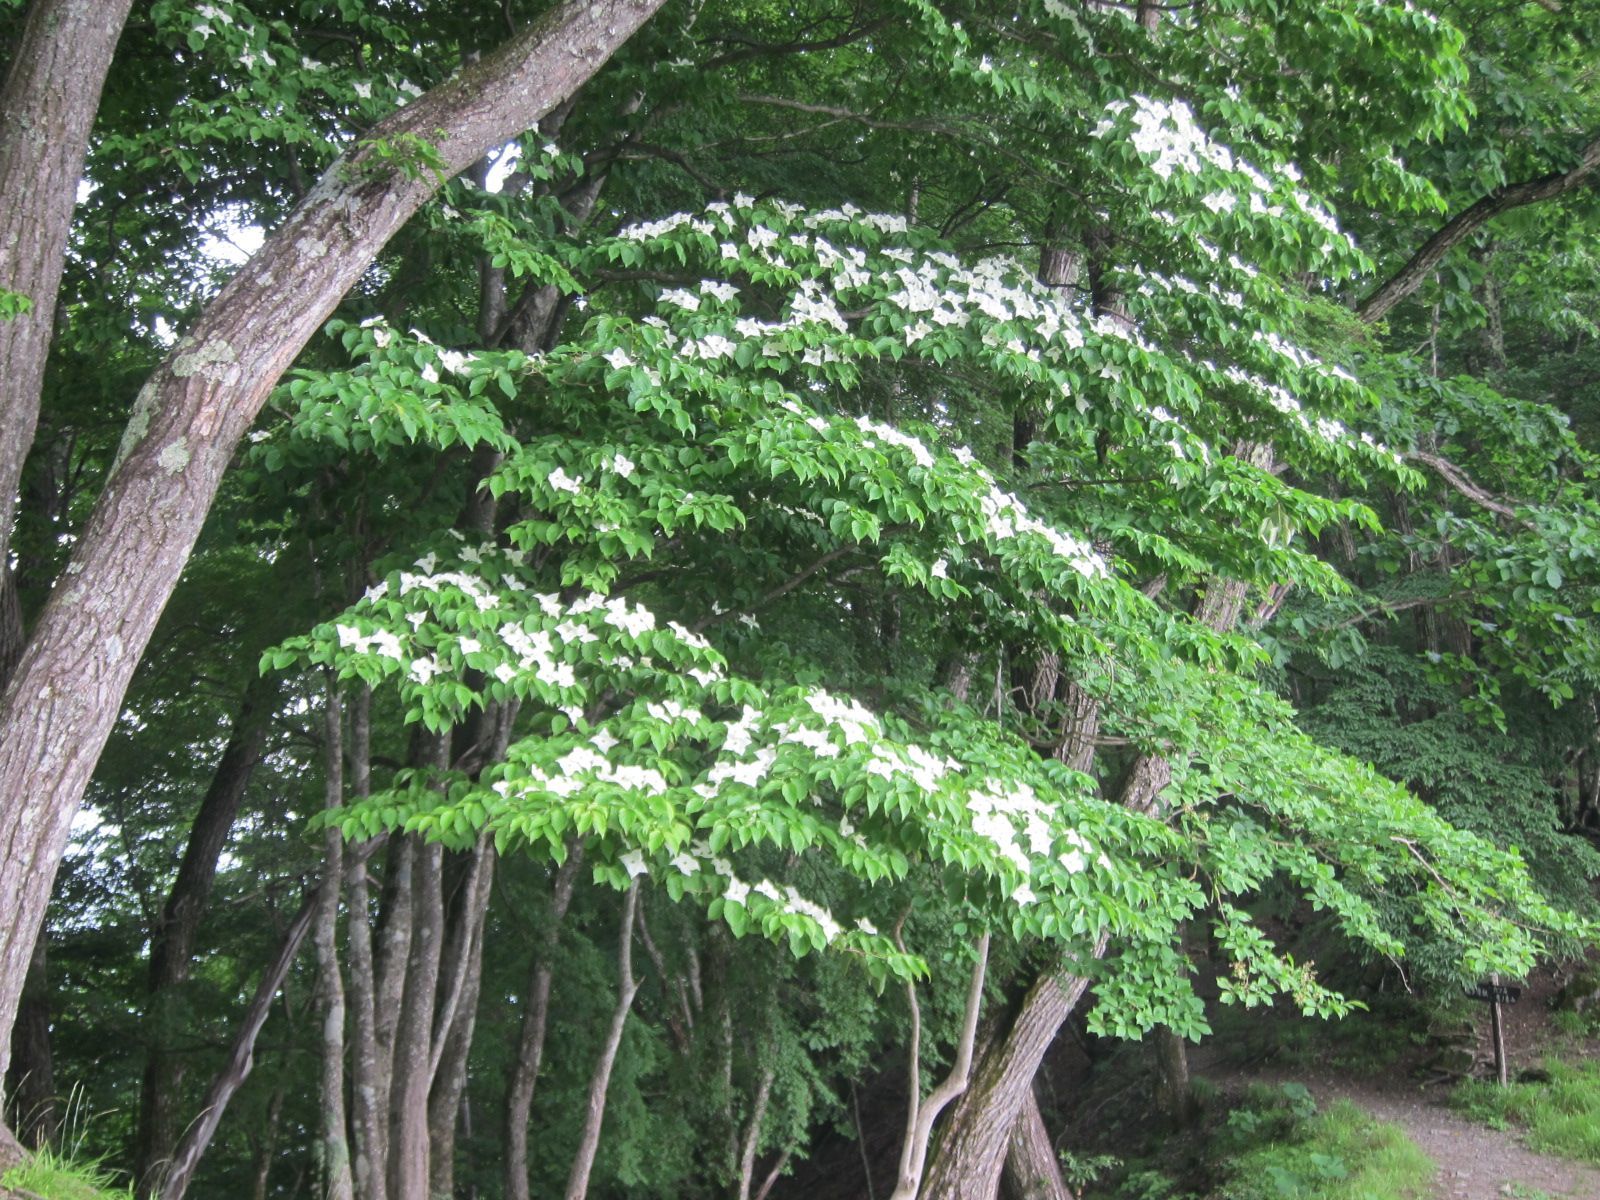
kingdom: Plantae
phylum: Tracheophyta
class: Magnoliopsida
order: Cornales
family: Cornaceae
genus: Cornus
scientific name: Cornus kousa
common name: Japanese dogwood
